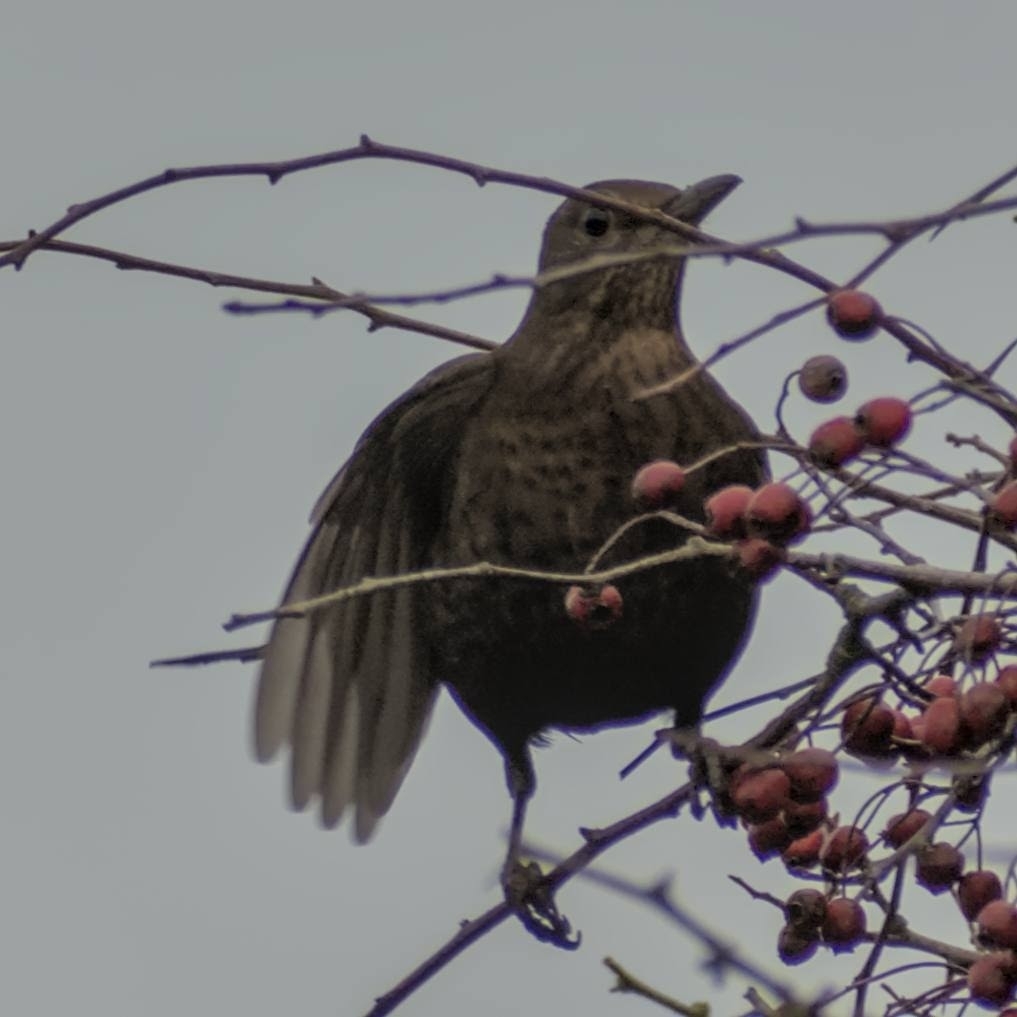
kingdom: Animalia
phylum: Chordata
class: Aves
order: Passeriformes
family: Turdidae
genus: Turdus
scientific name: Turdus merula
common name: Common blackbird
